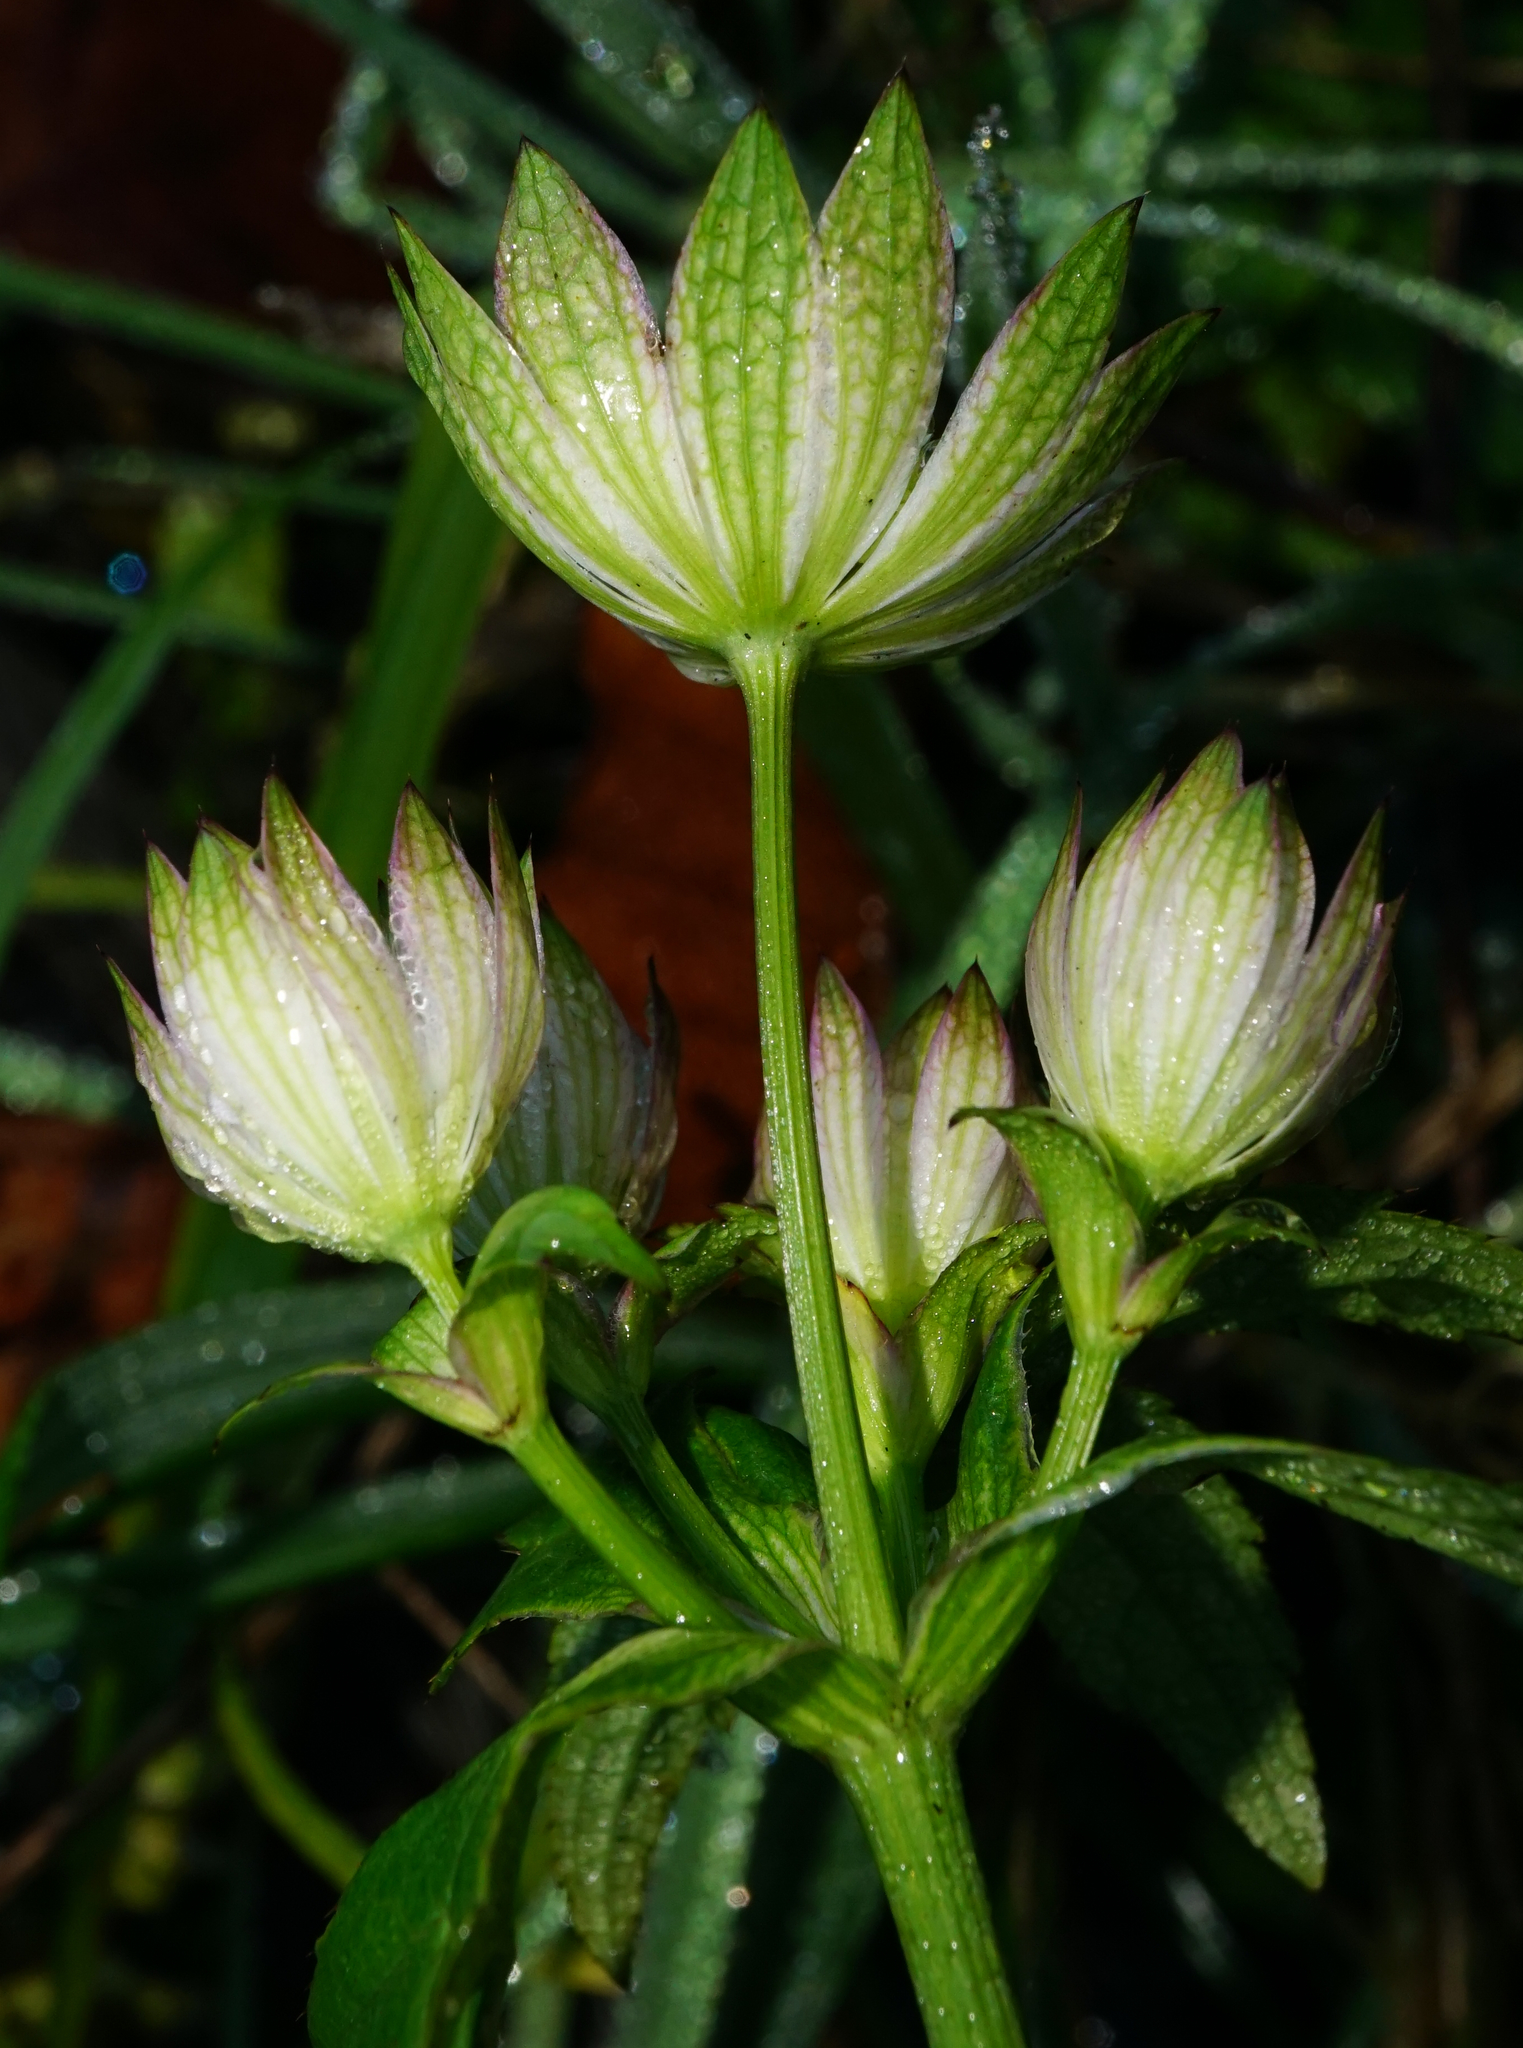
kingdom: Plantae
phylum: Tracheophyta
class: Magnoliopsida
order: Apiales
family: Apiaceae
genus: Astrantia
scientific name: Astrantia major
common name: Greater masterwort
